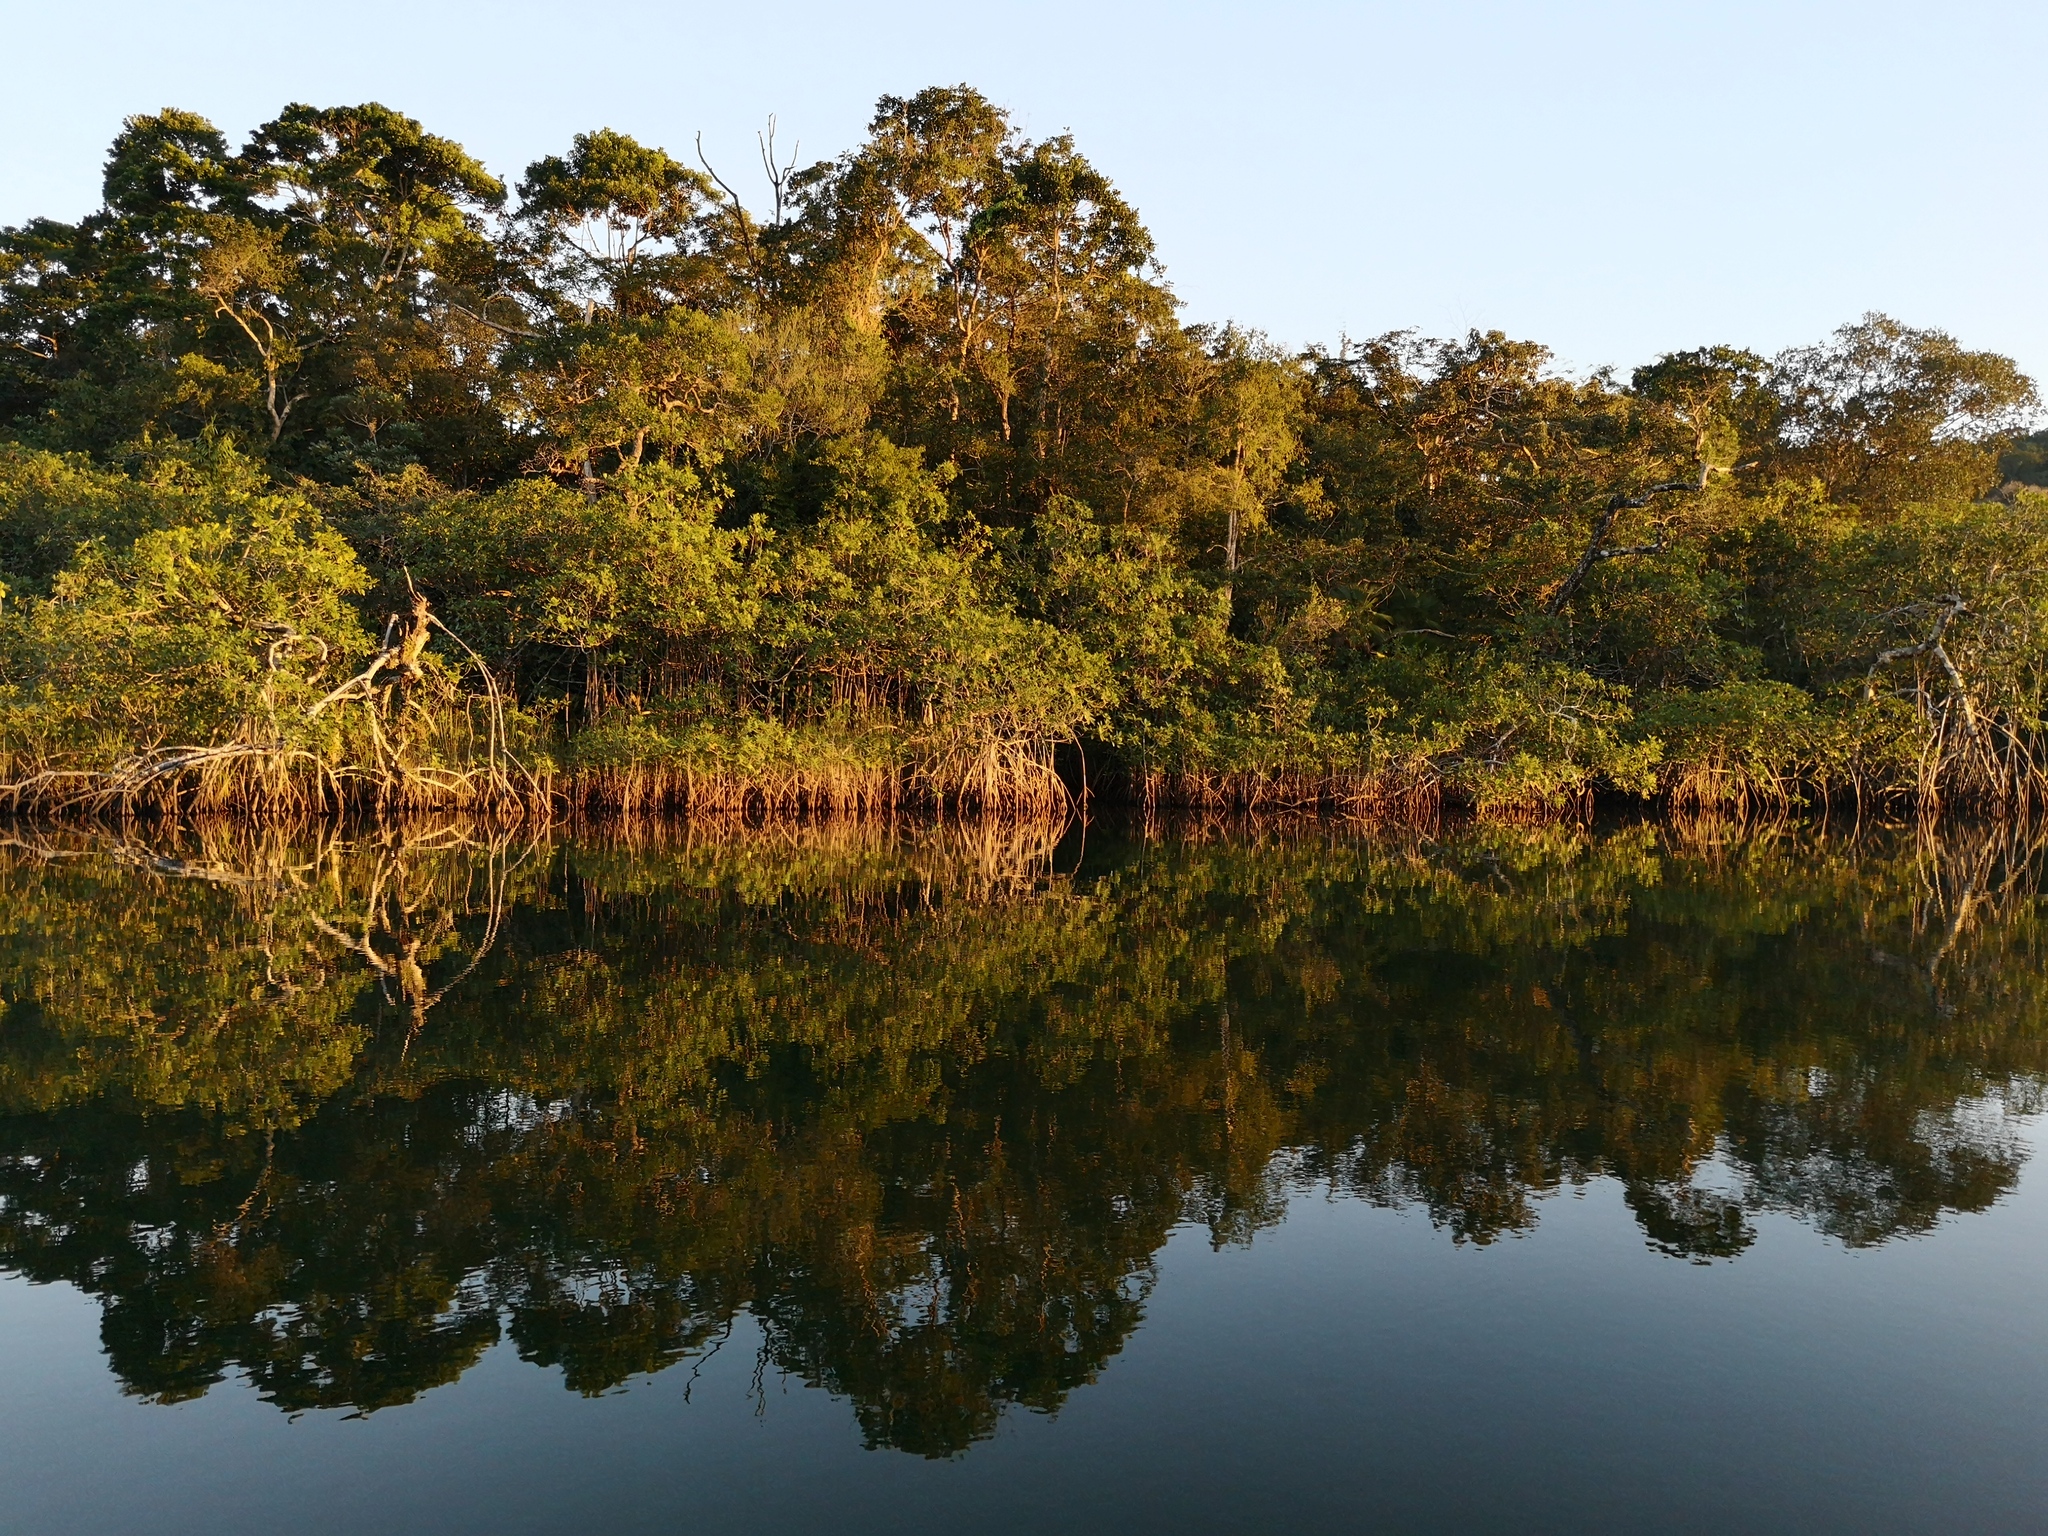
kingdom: Plantae
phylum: Tracheophyta
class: Magnoliopsida
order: Malpighiales
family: Rhizophoraceae
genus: Rhizophora
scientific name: Rhizophora mangle
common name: Red mangrove
